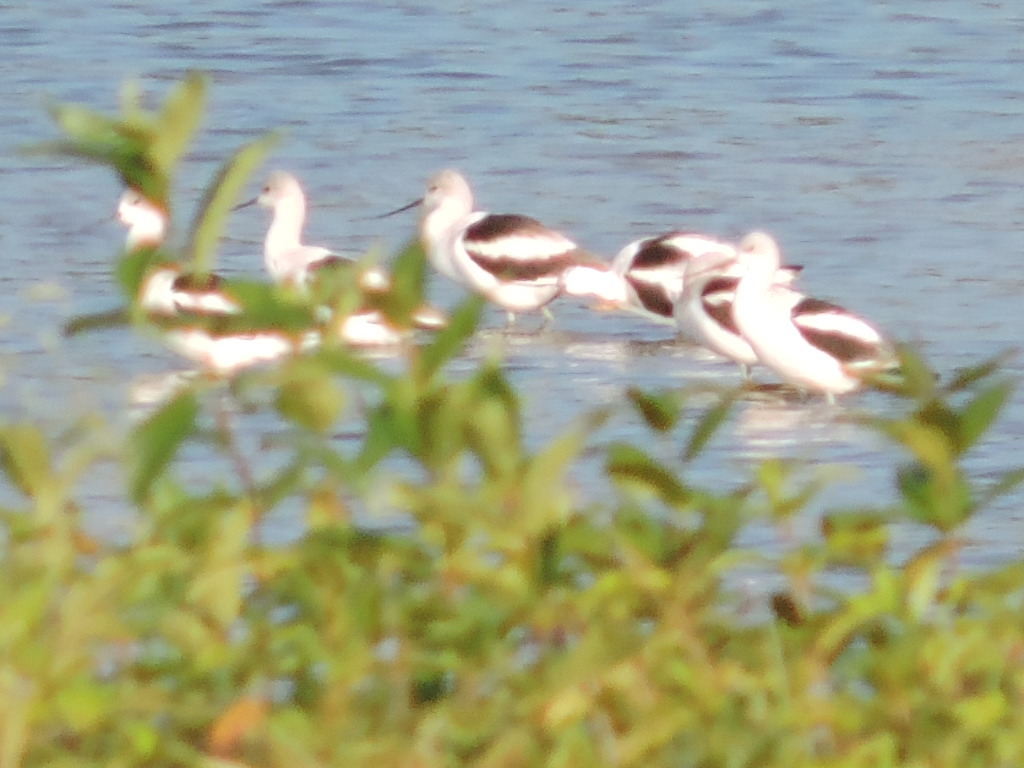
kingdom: Animalia
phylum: Chordata
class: Aves
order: Charadriiformes
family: Recurvirostridae
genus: Recurvirostra
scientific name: Recurvirostra americana
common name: American avocet
